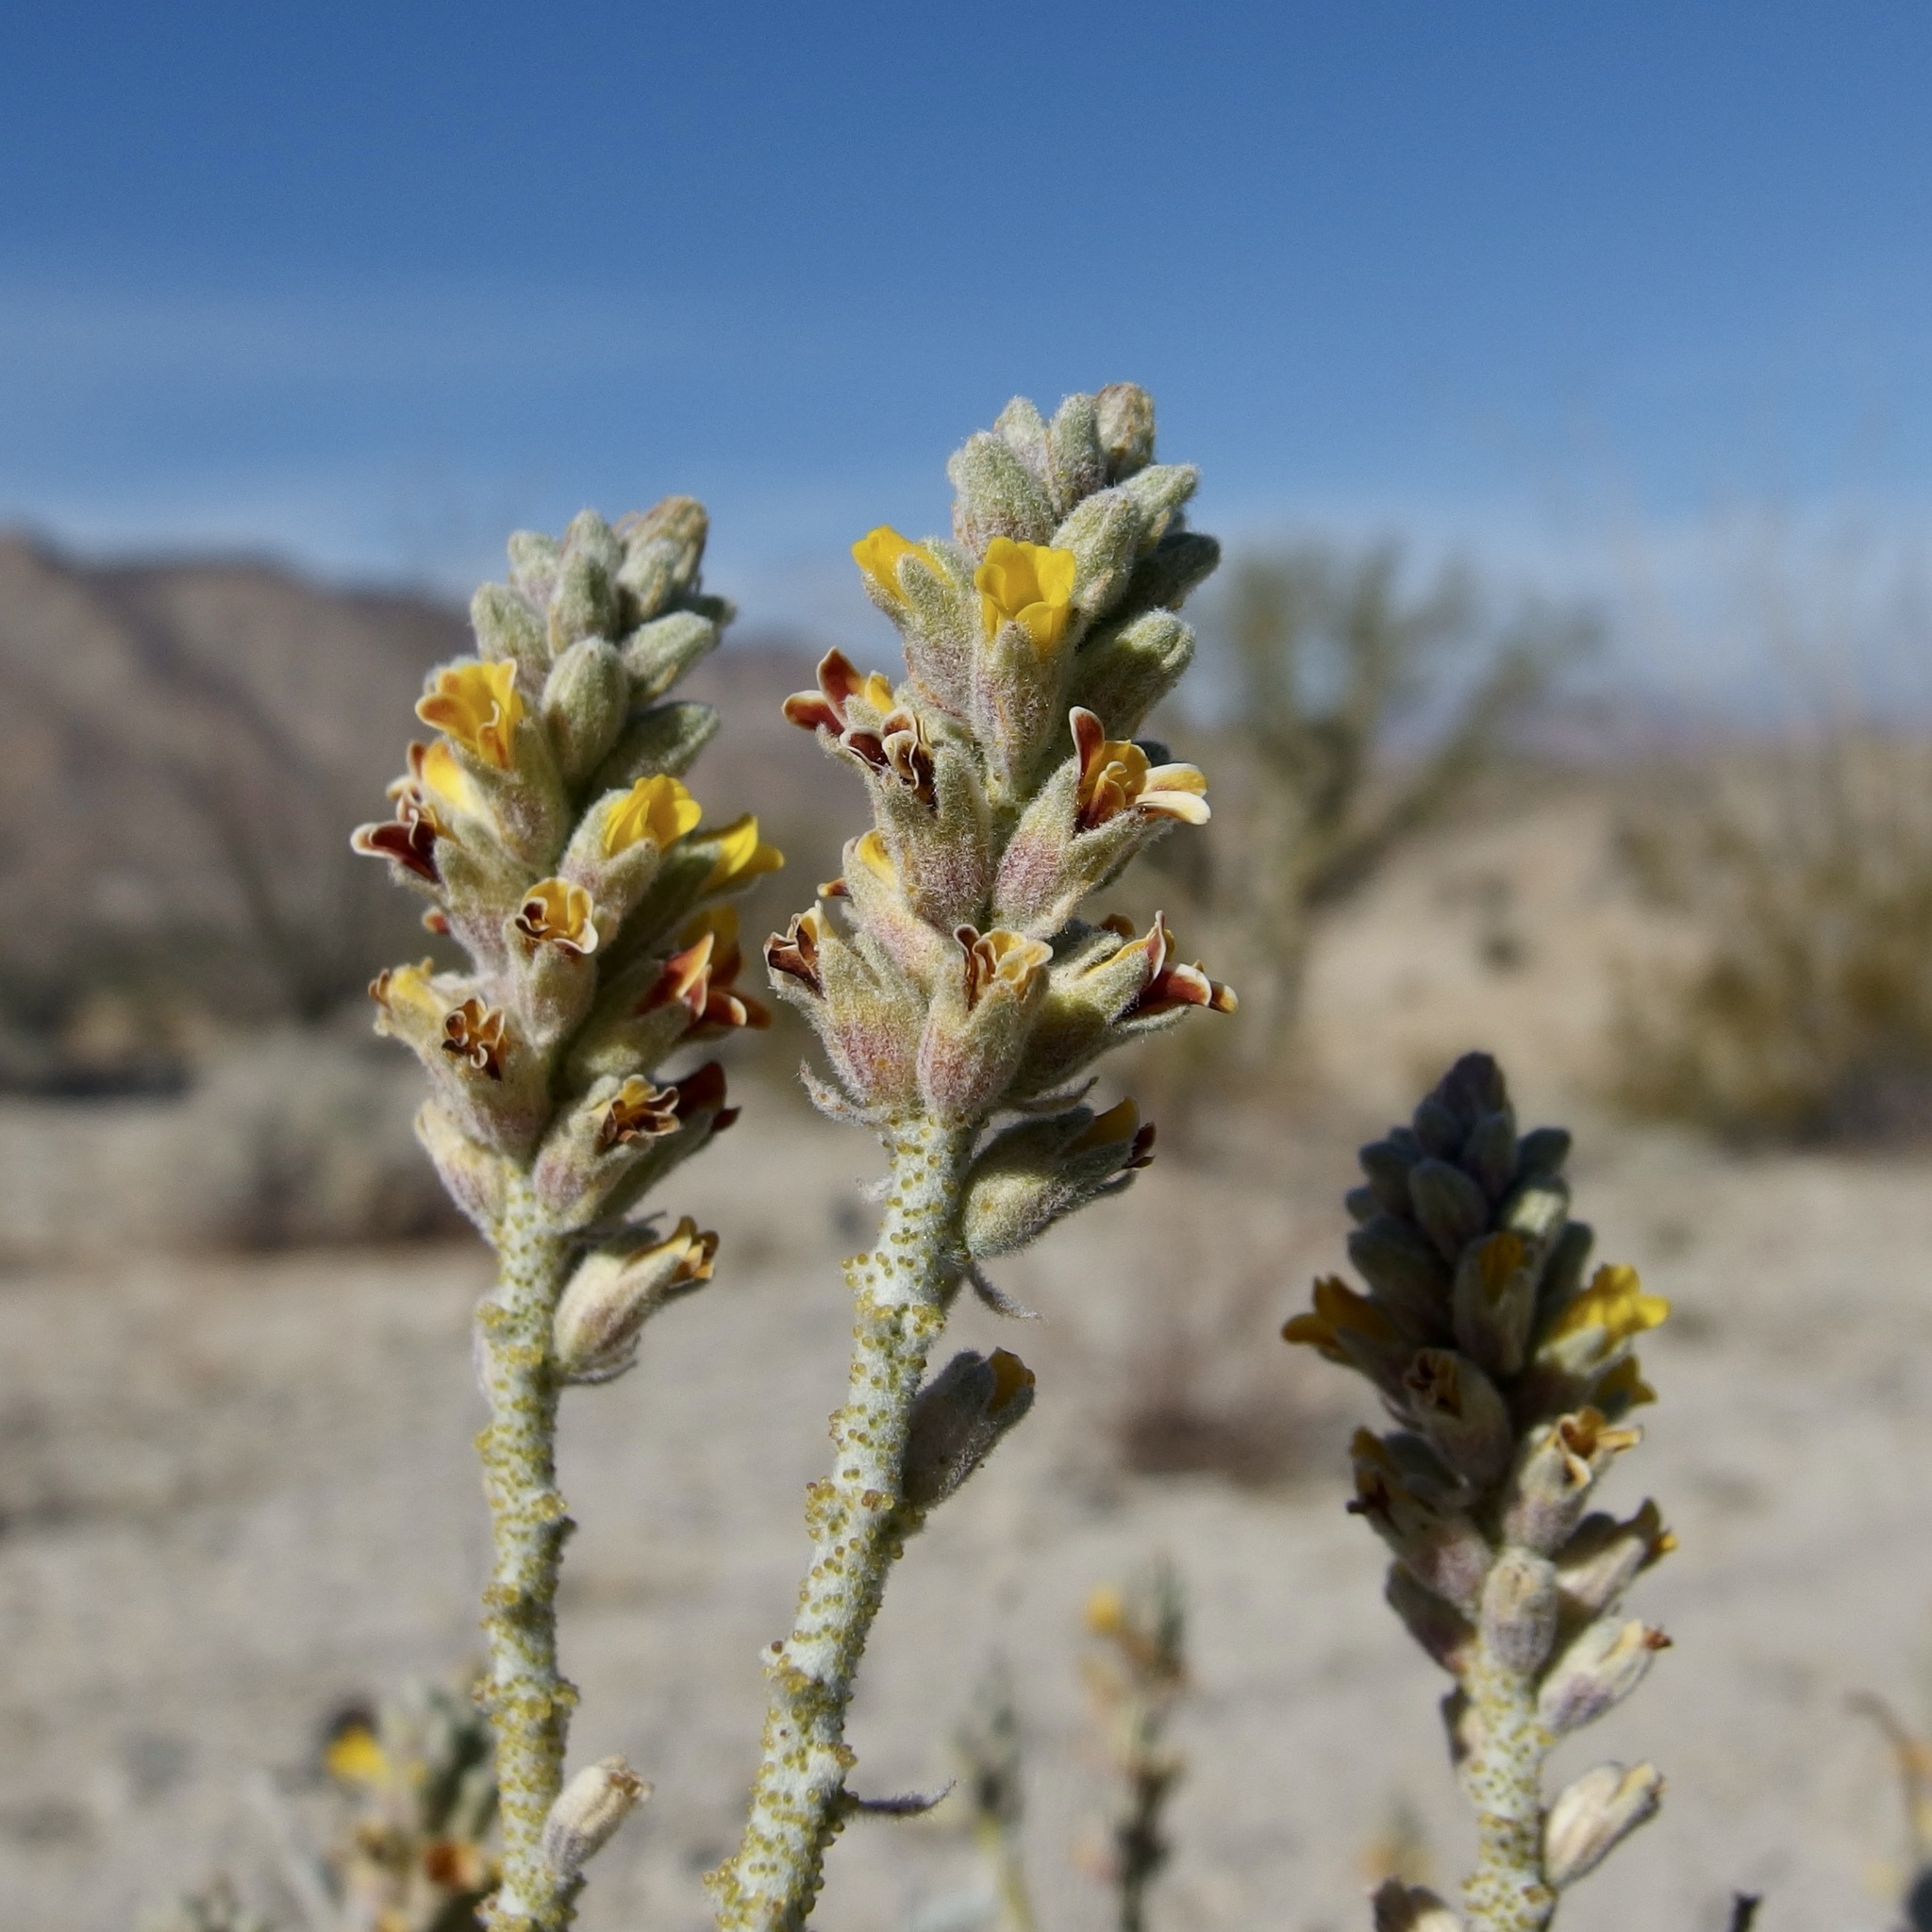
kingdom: Plantae
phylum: Tracheophyta
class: Magnoliopsida
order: Fabales
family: Fabaceae
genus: Errazurizia
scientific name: Errazurizia megacarpa
